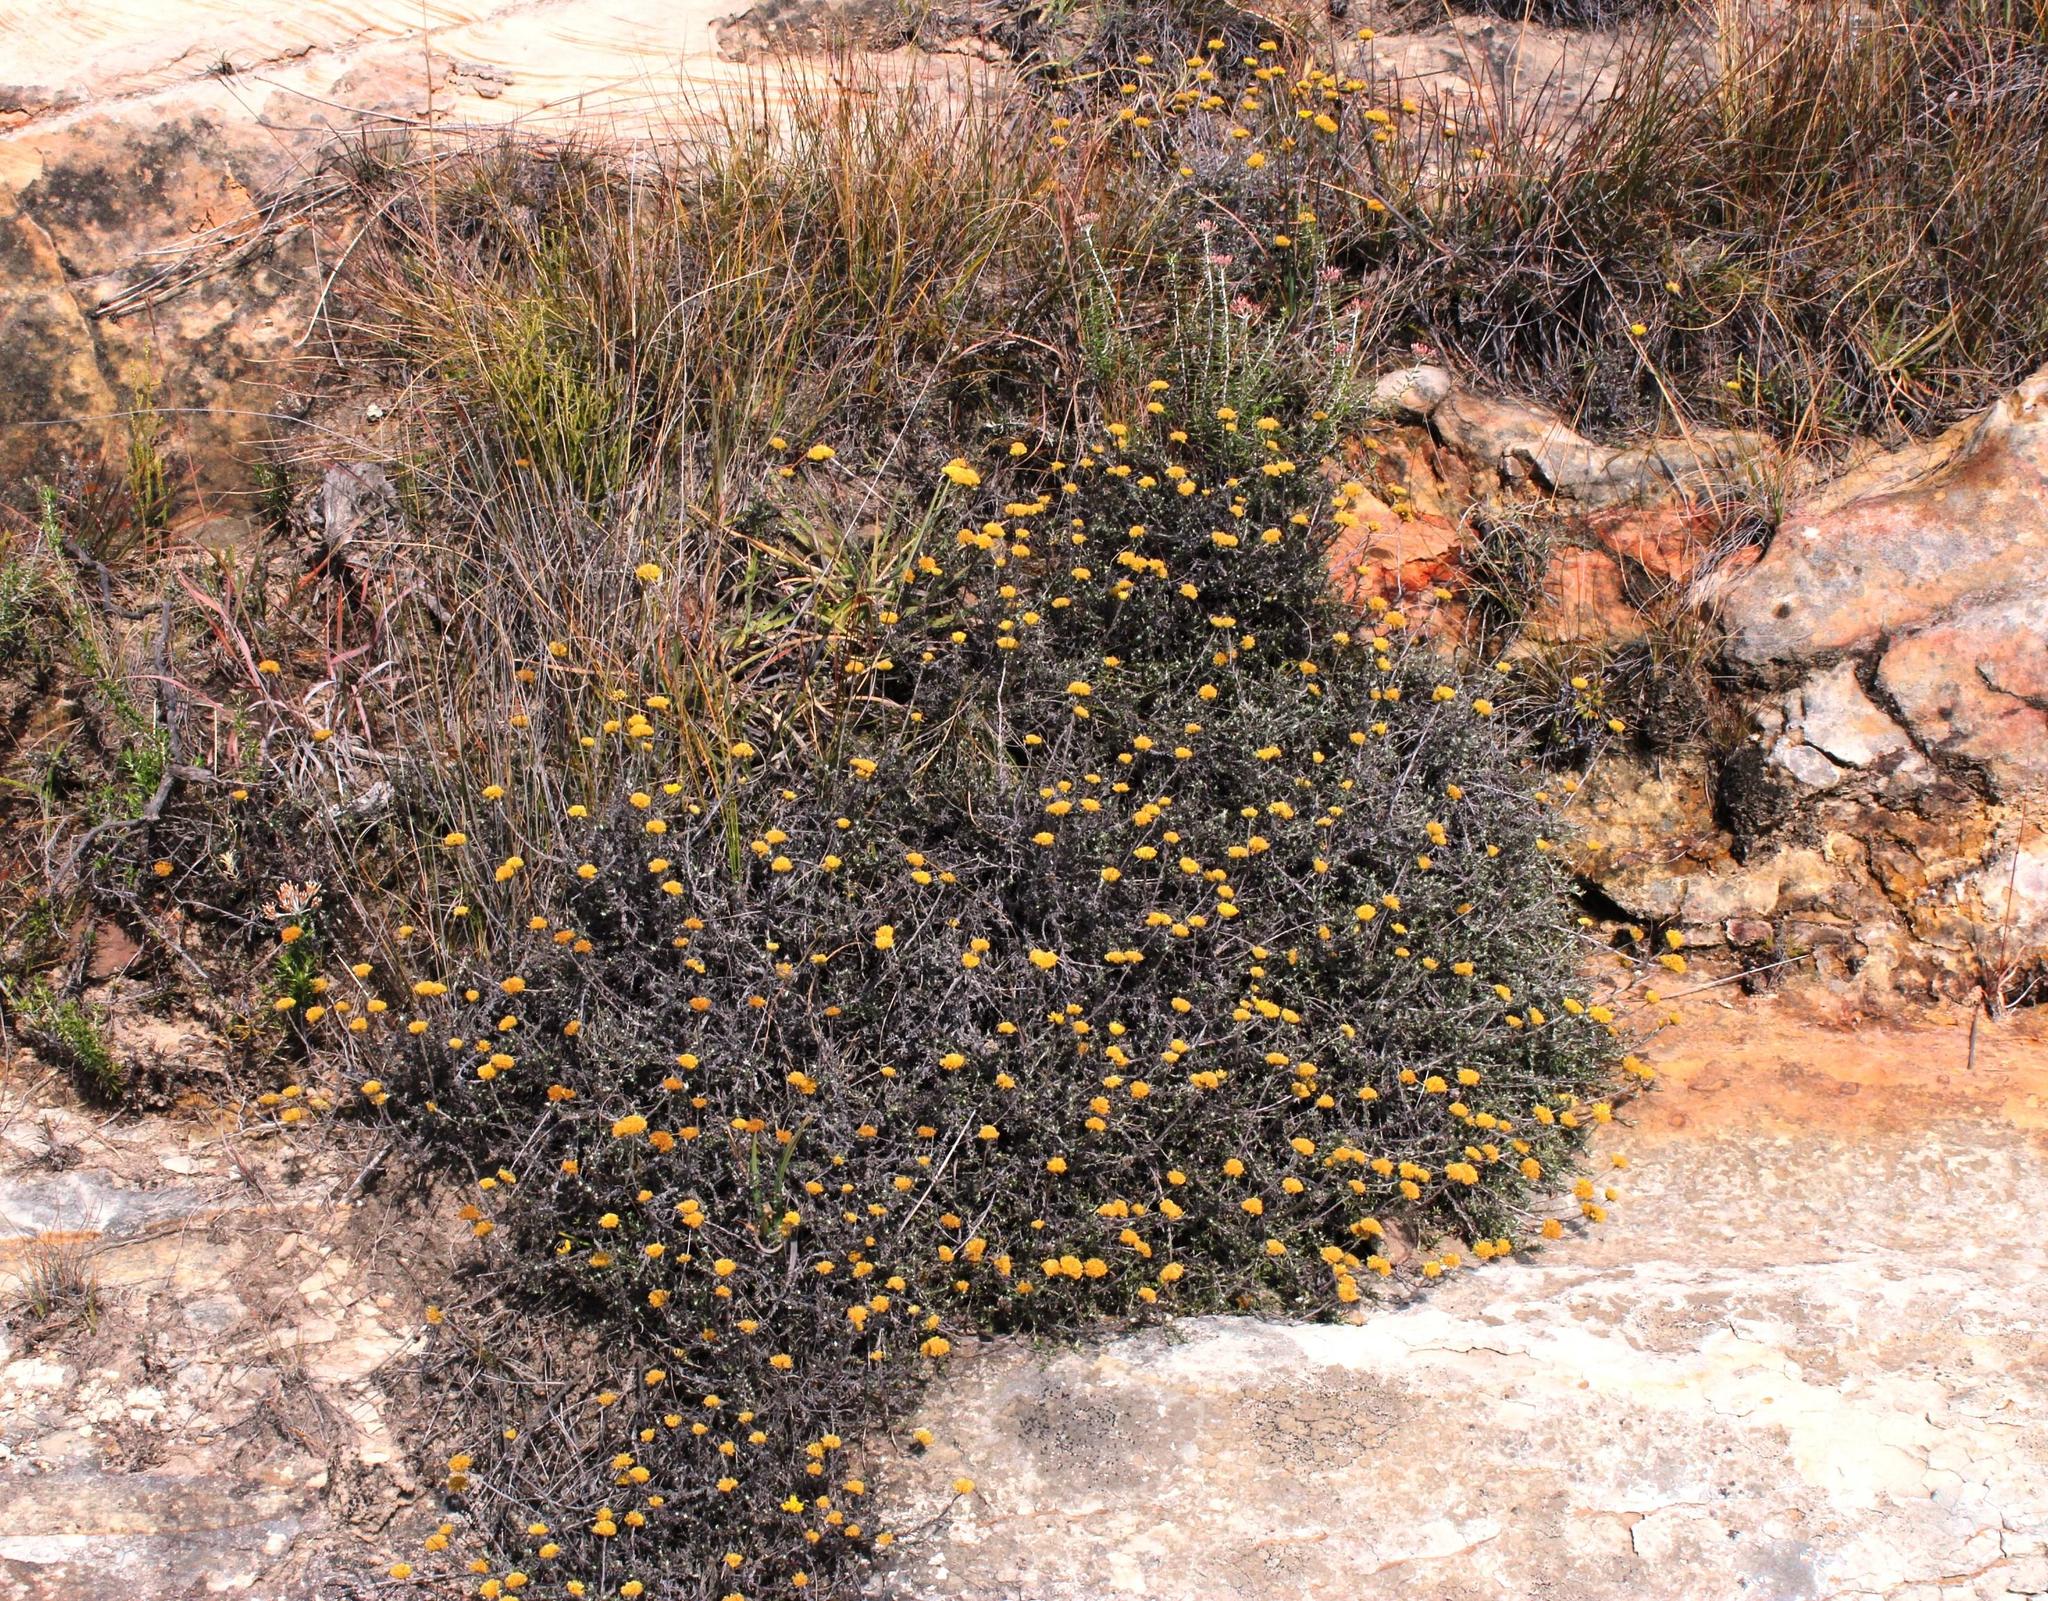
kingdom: Plantae
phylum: Tracheophyta
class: Magnoliopsida
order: Asterales
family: Asteraceae
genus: Helichrysum
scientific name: Helichrysum dasycephalum
